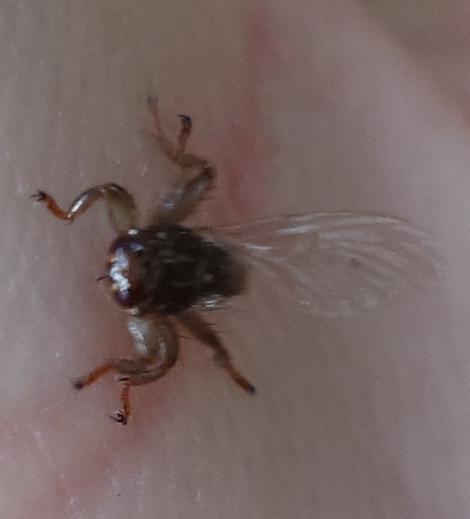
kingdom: Animalia
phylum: Arthropoda
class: Insecta
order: Diptera
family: Hippoboscidae
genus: Lipoptena
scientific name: Lipoptena cervi
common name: Deer ked
